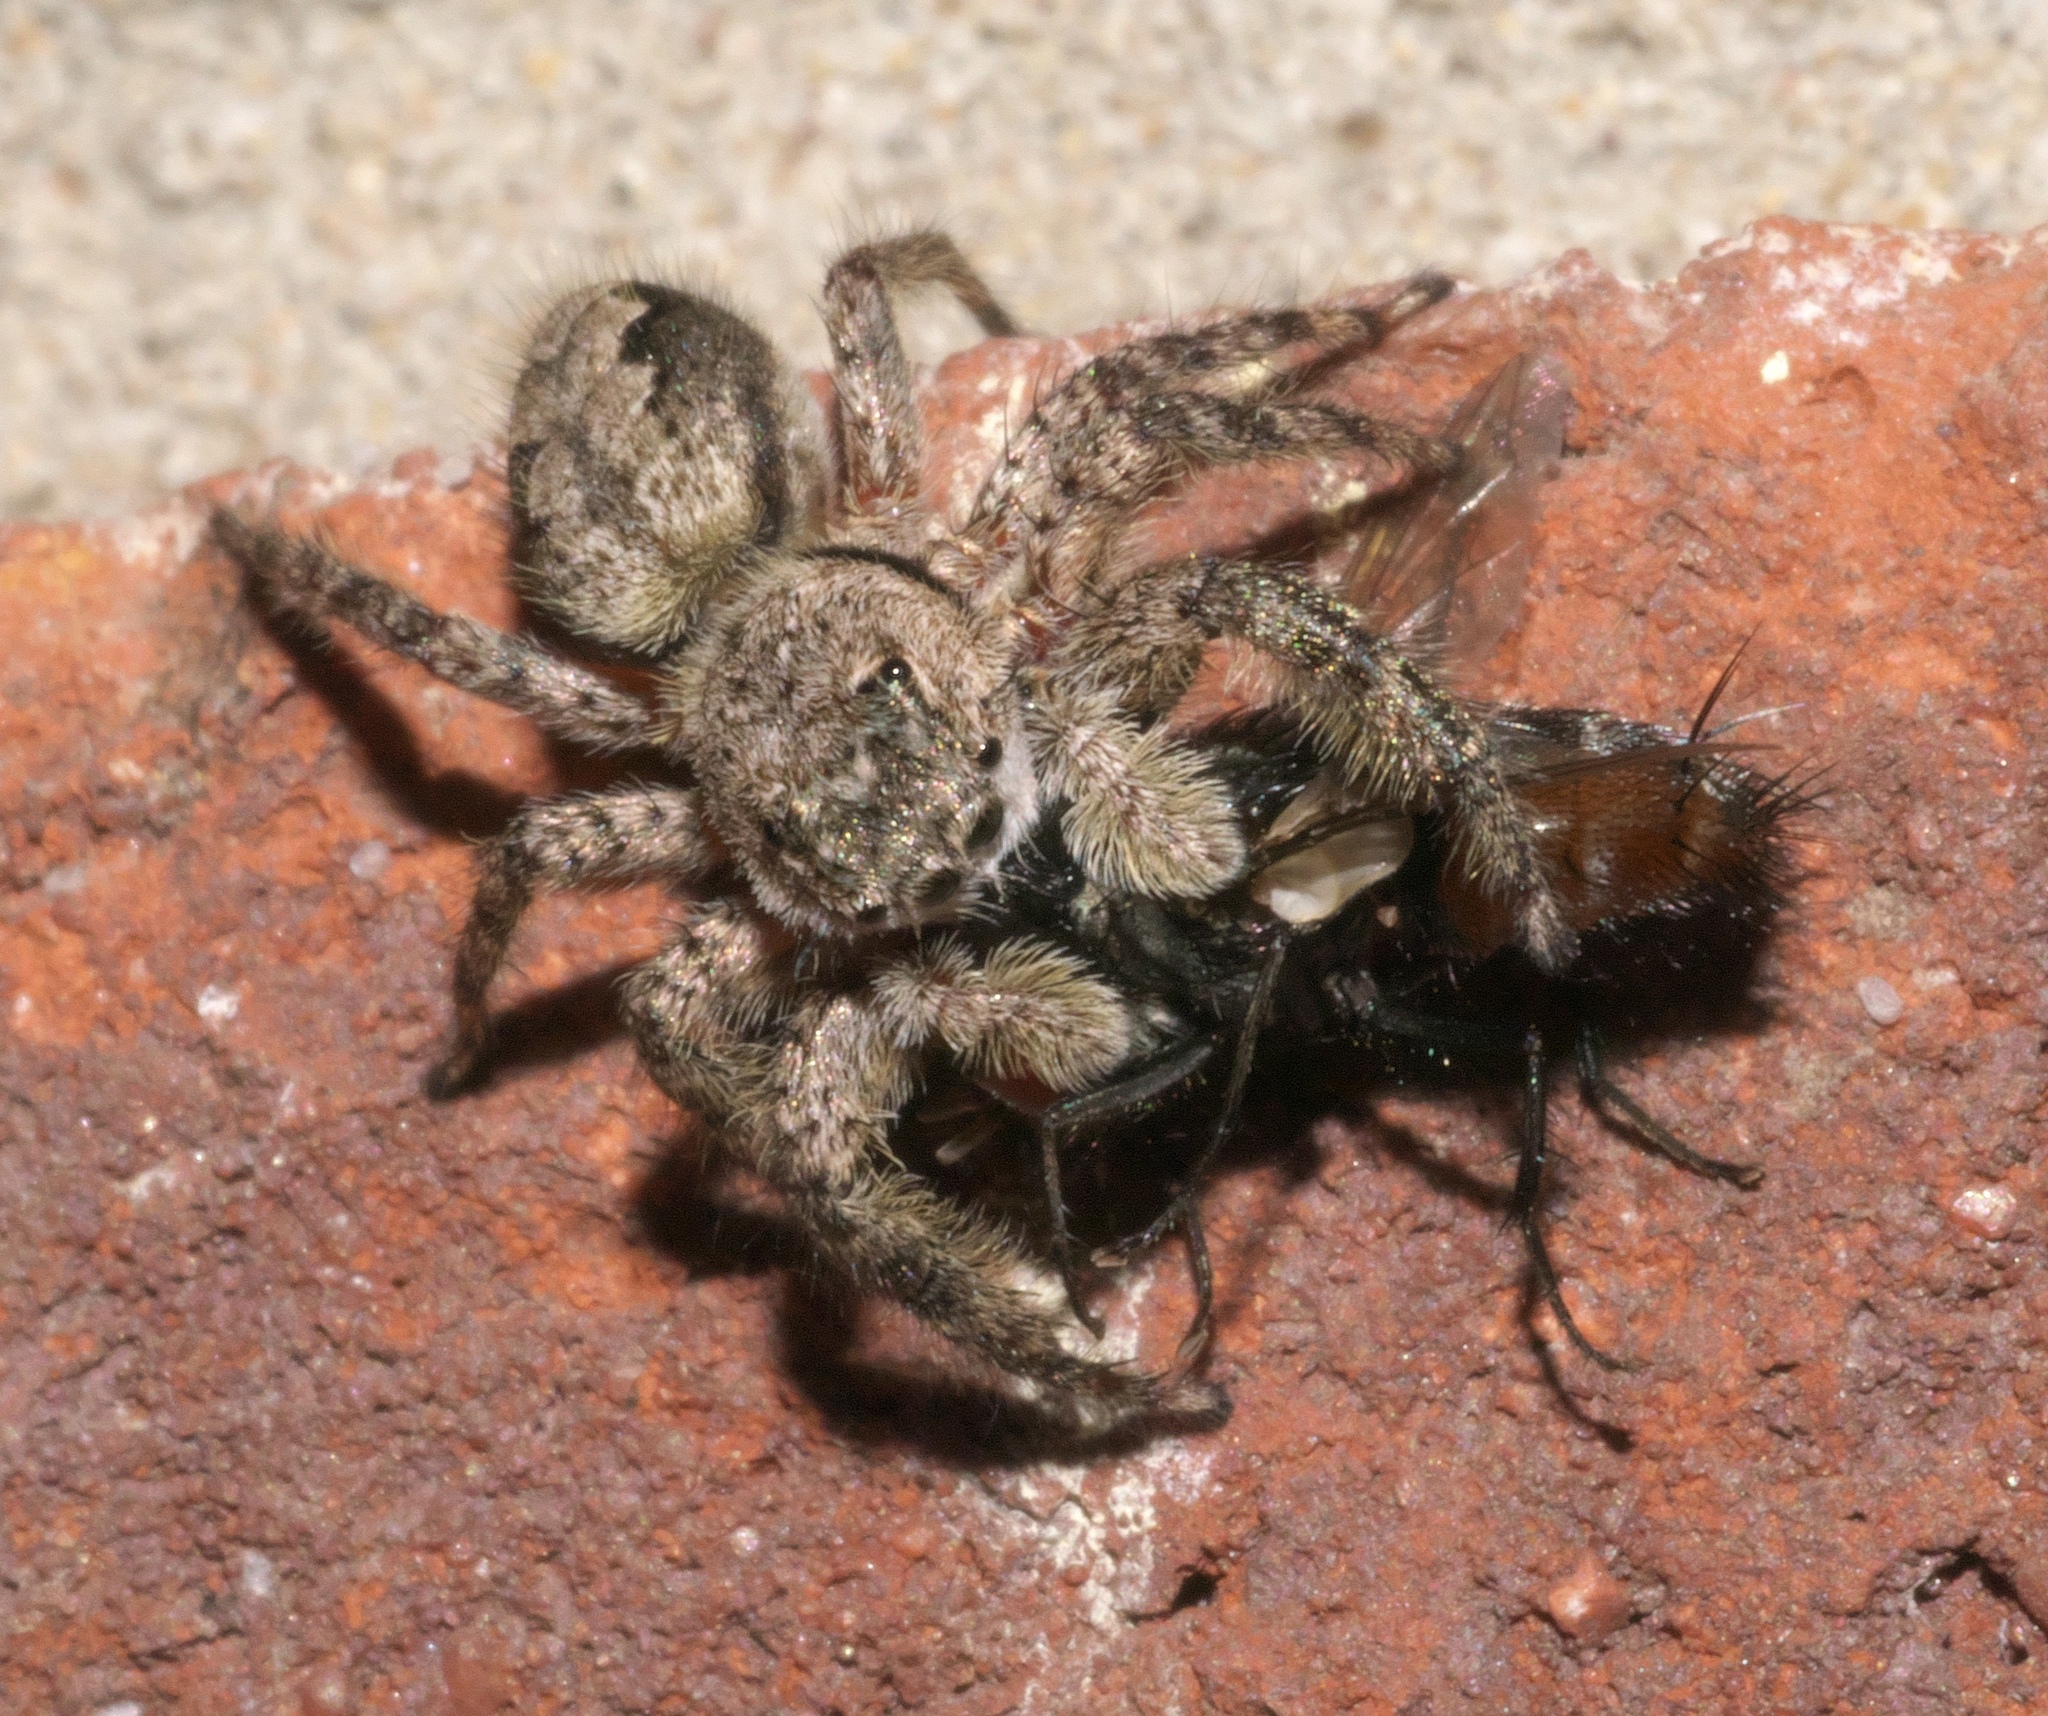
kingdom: Animalia
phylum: Arthropoda
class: Arachnida
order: Araneae
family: Salticidae
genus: Platycryptus
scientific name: Platycryptus undatus
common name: Tan jumping spider
